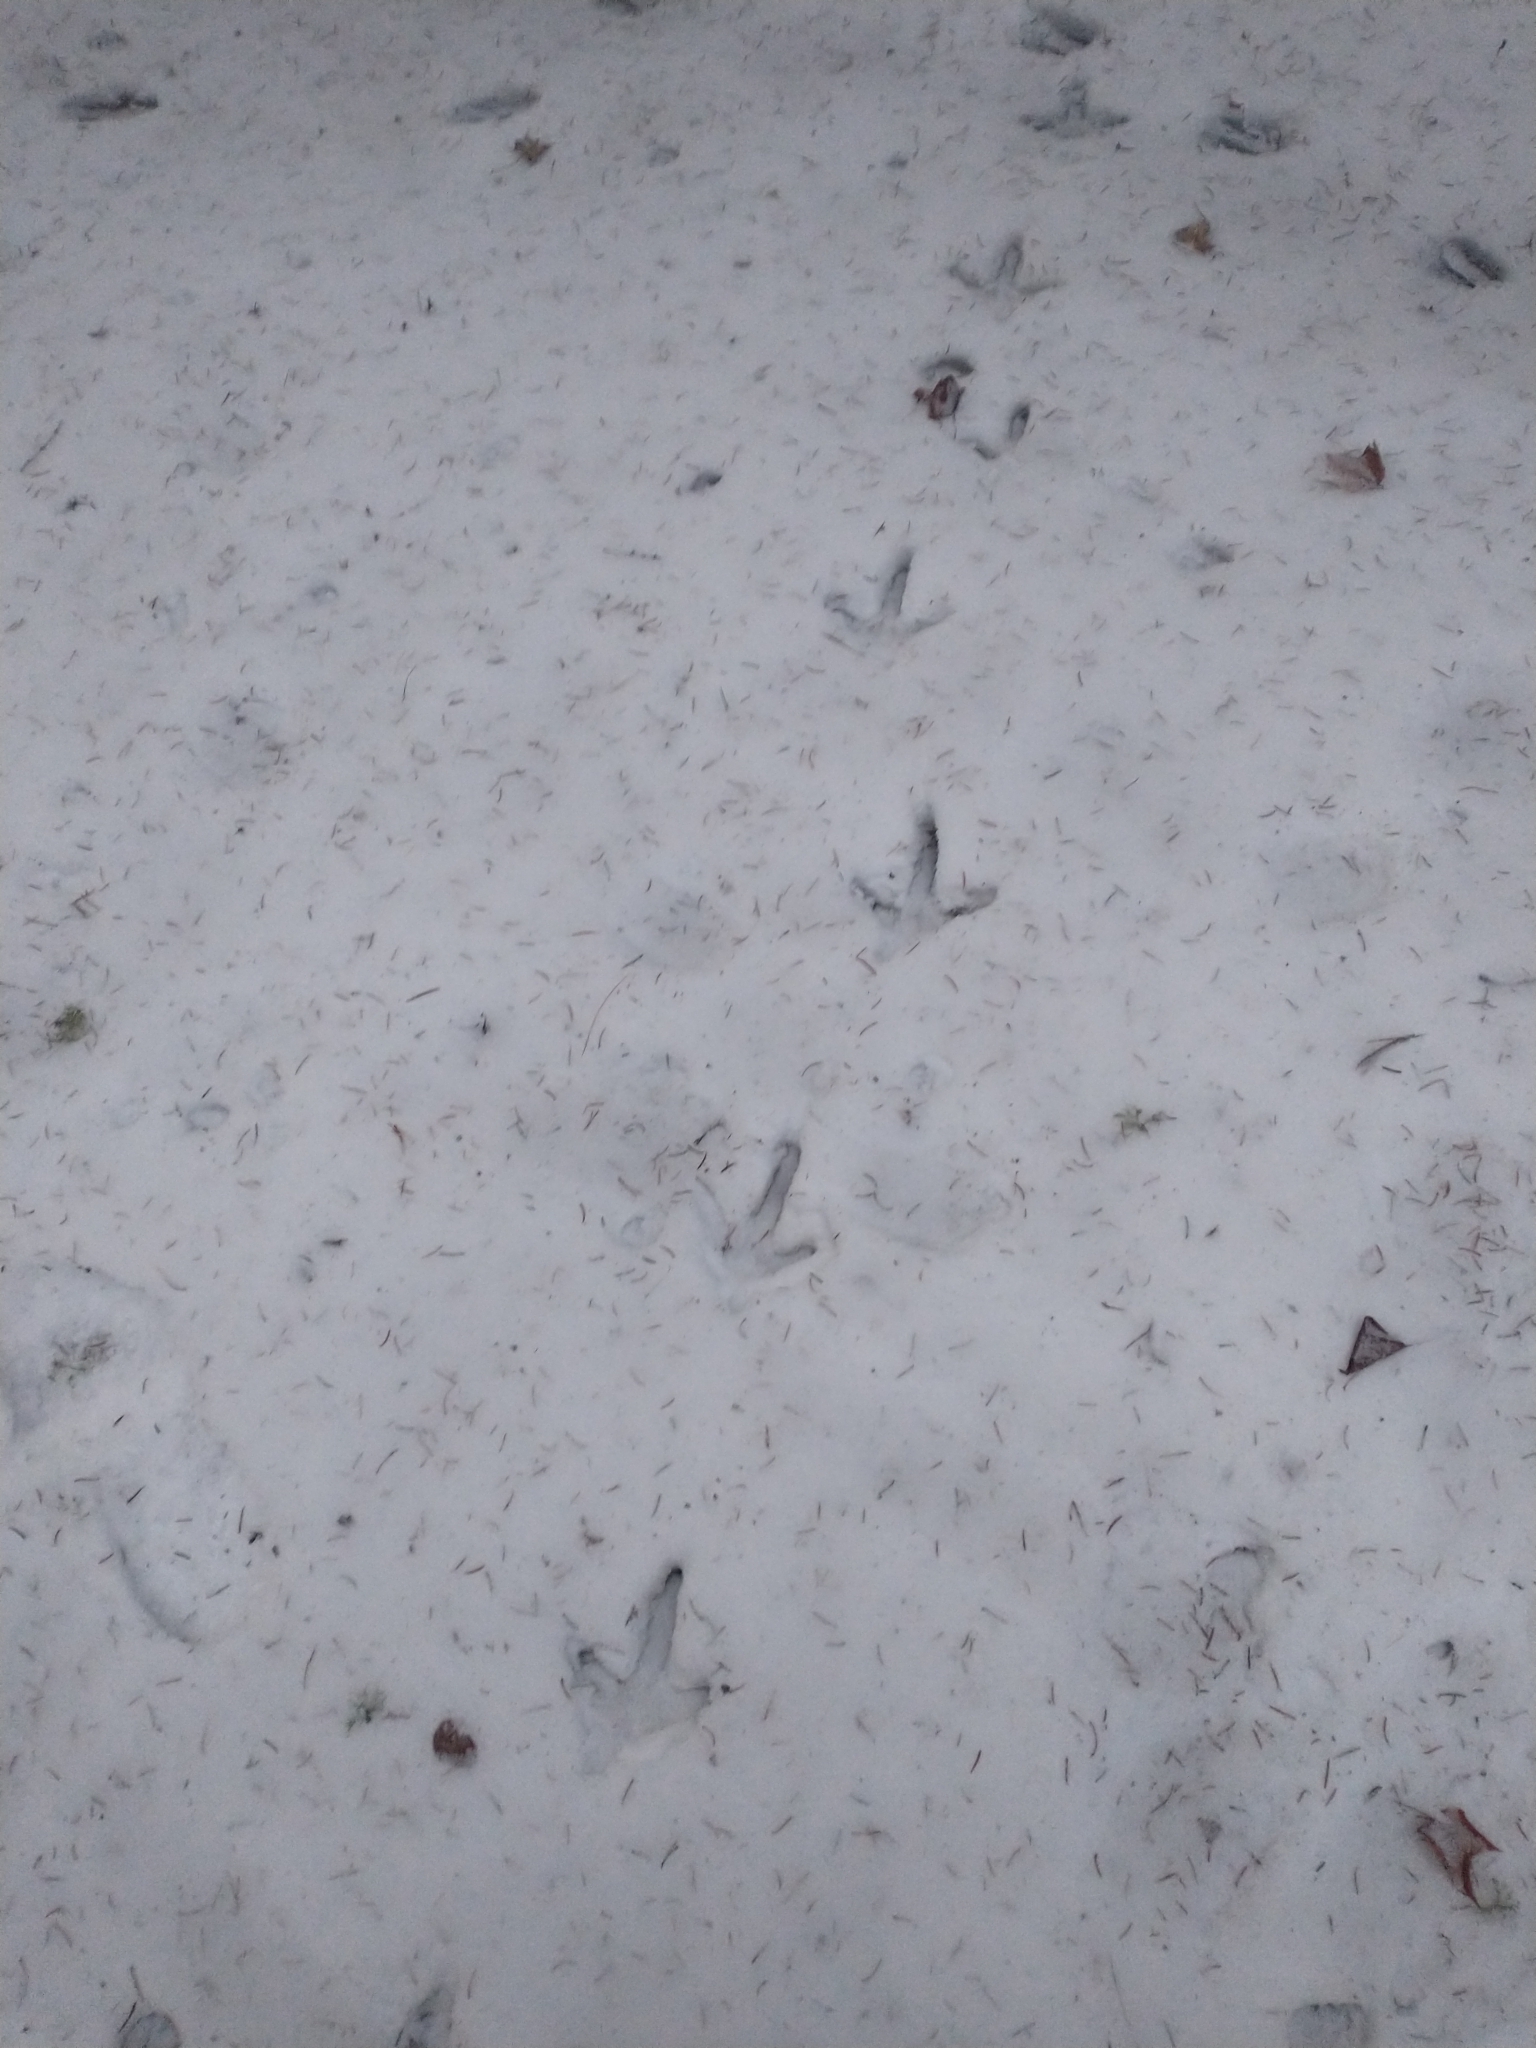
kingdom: Animalia
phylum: Chordata
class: Aves
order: Galliformes
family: Phasianidae
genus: Meleagris
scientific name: Meleagris gallopavo
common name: Wild turkey
